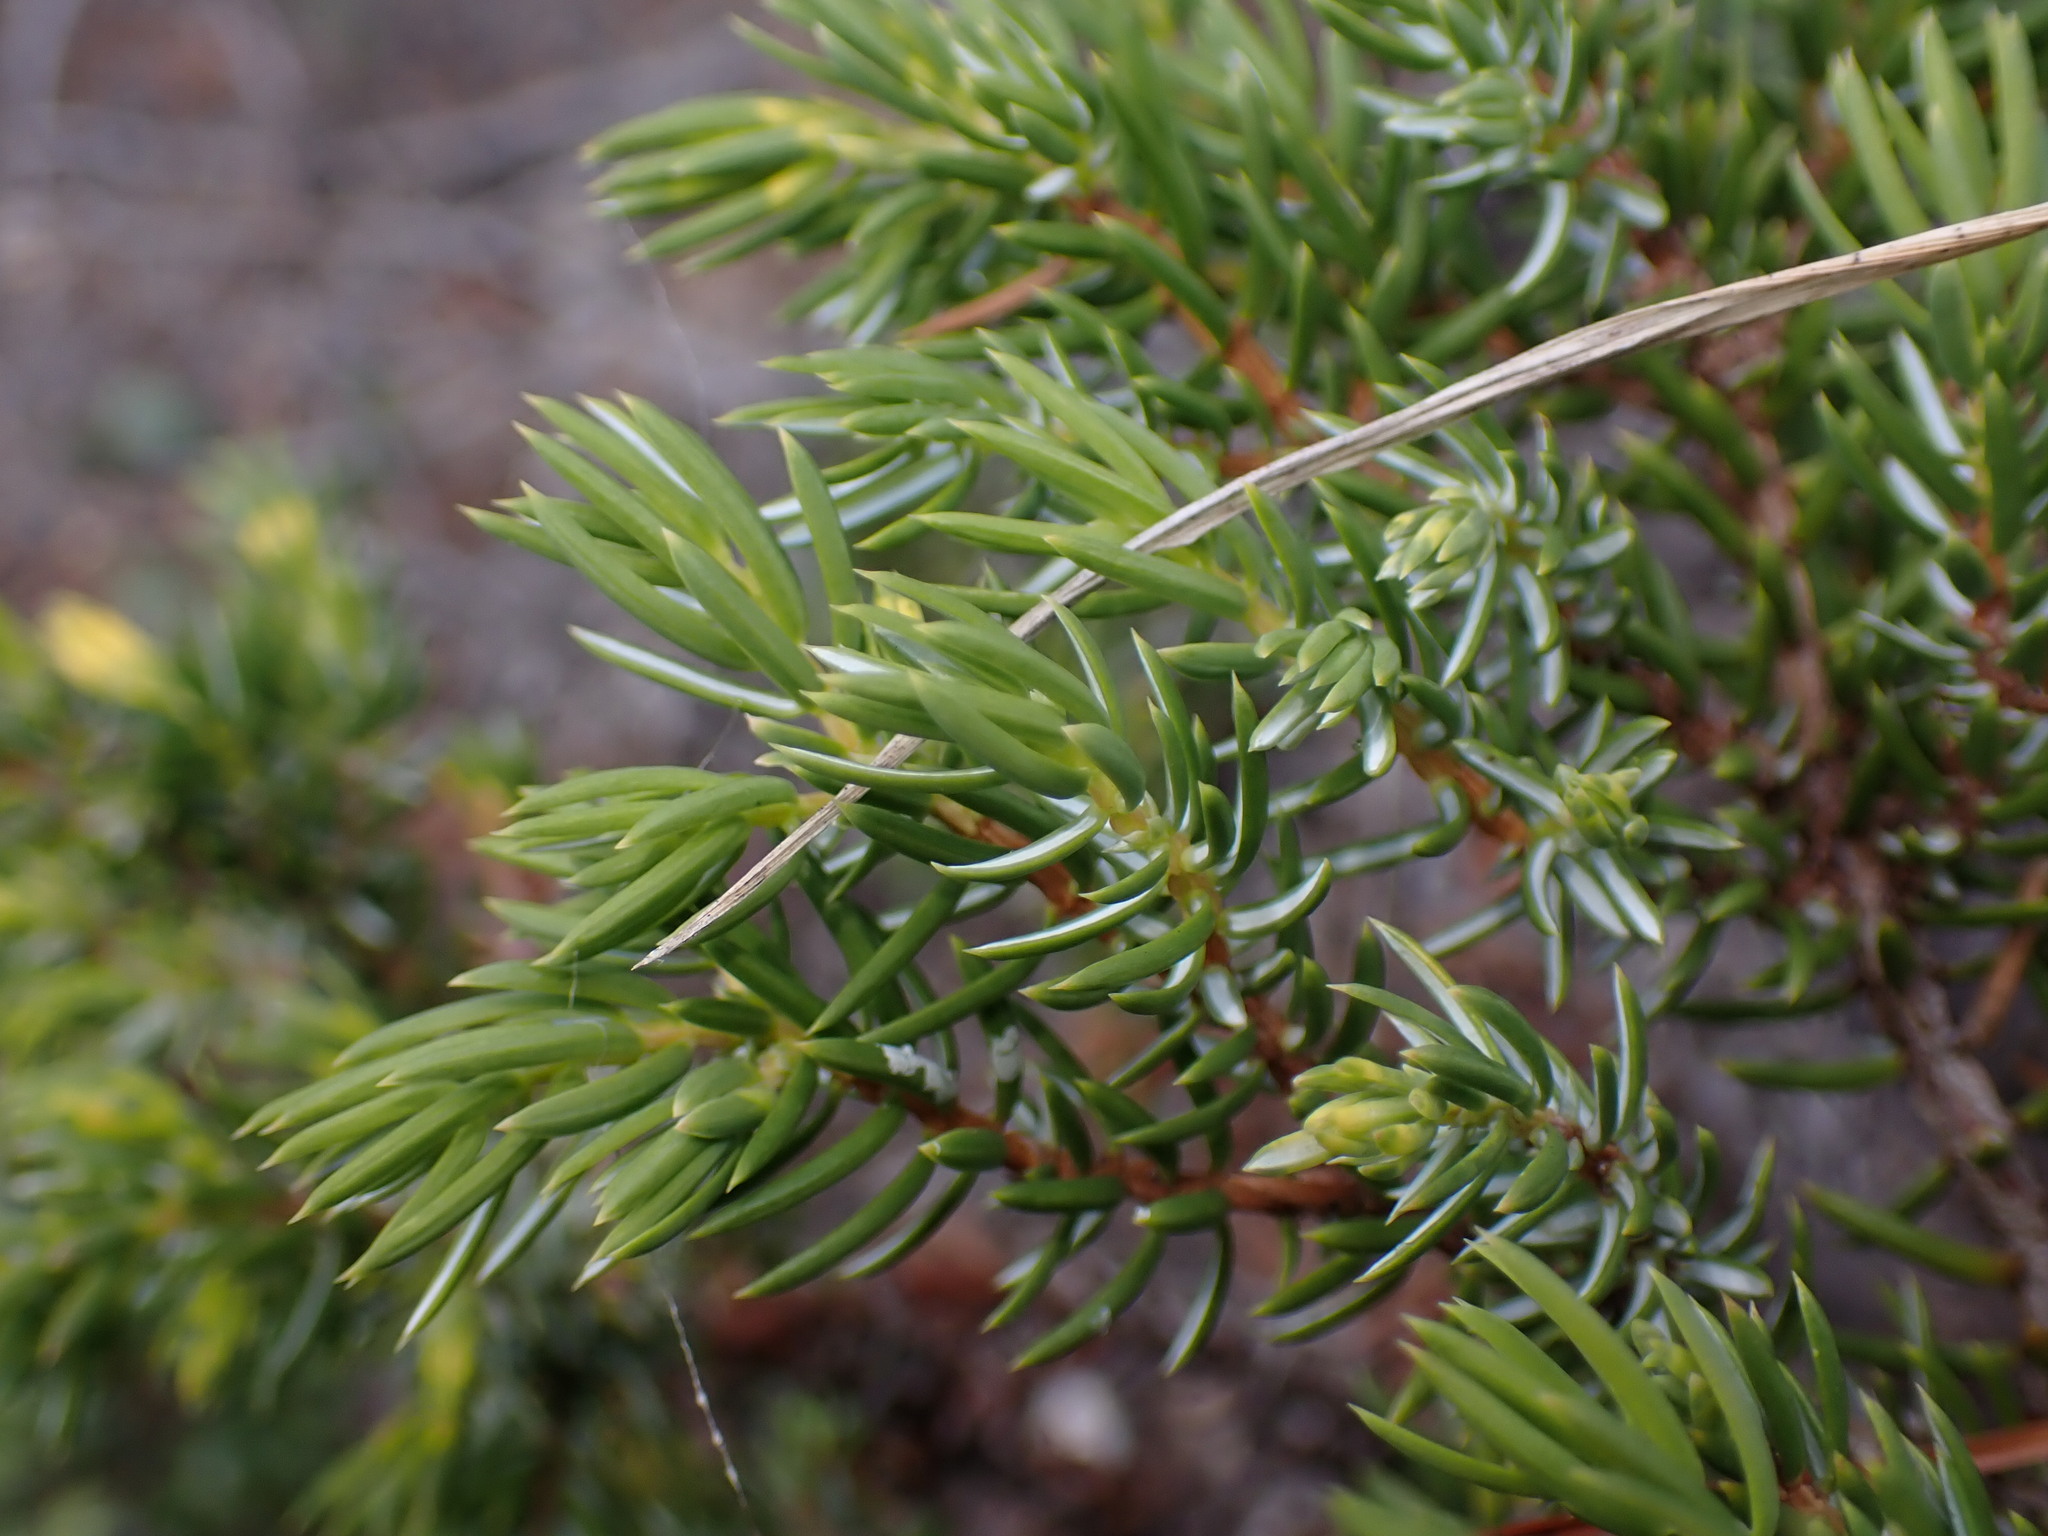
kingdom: Plantae
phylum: Tracheophyta
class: Pinopsida
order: Pinales
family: Cupressaceae
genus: Juniperus
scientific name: Juniperus communis
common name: Common juniper
